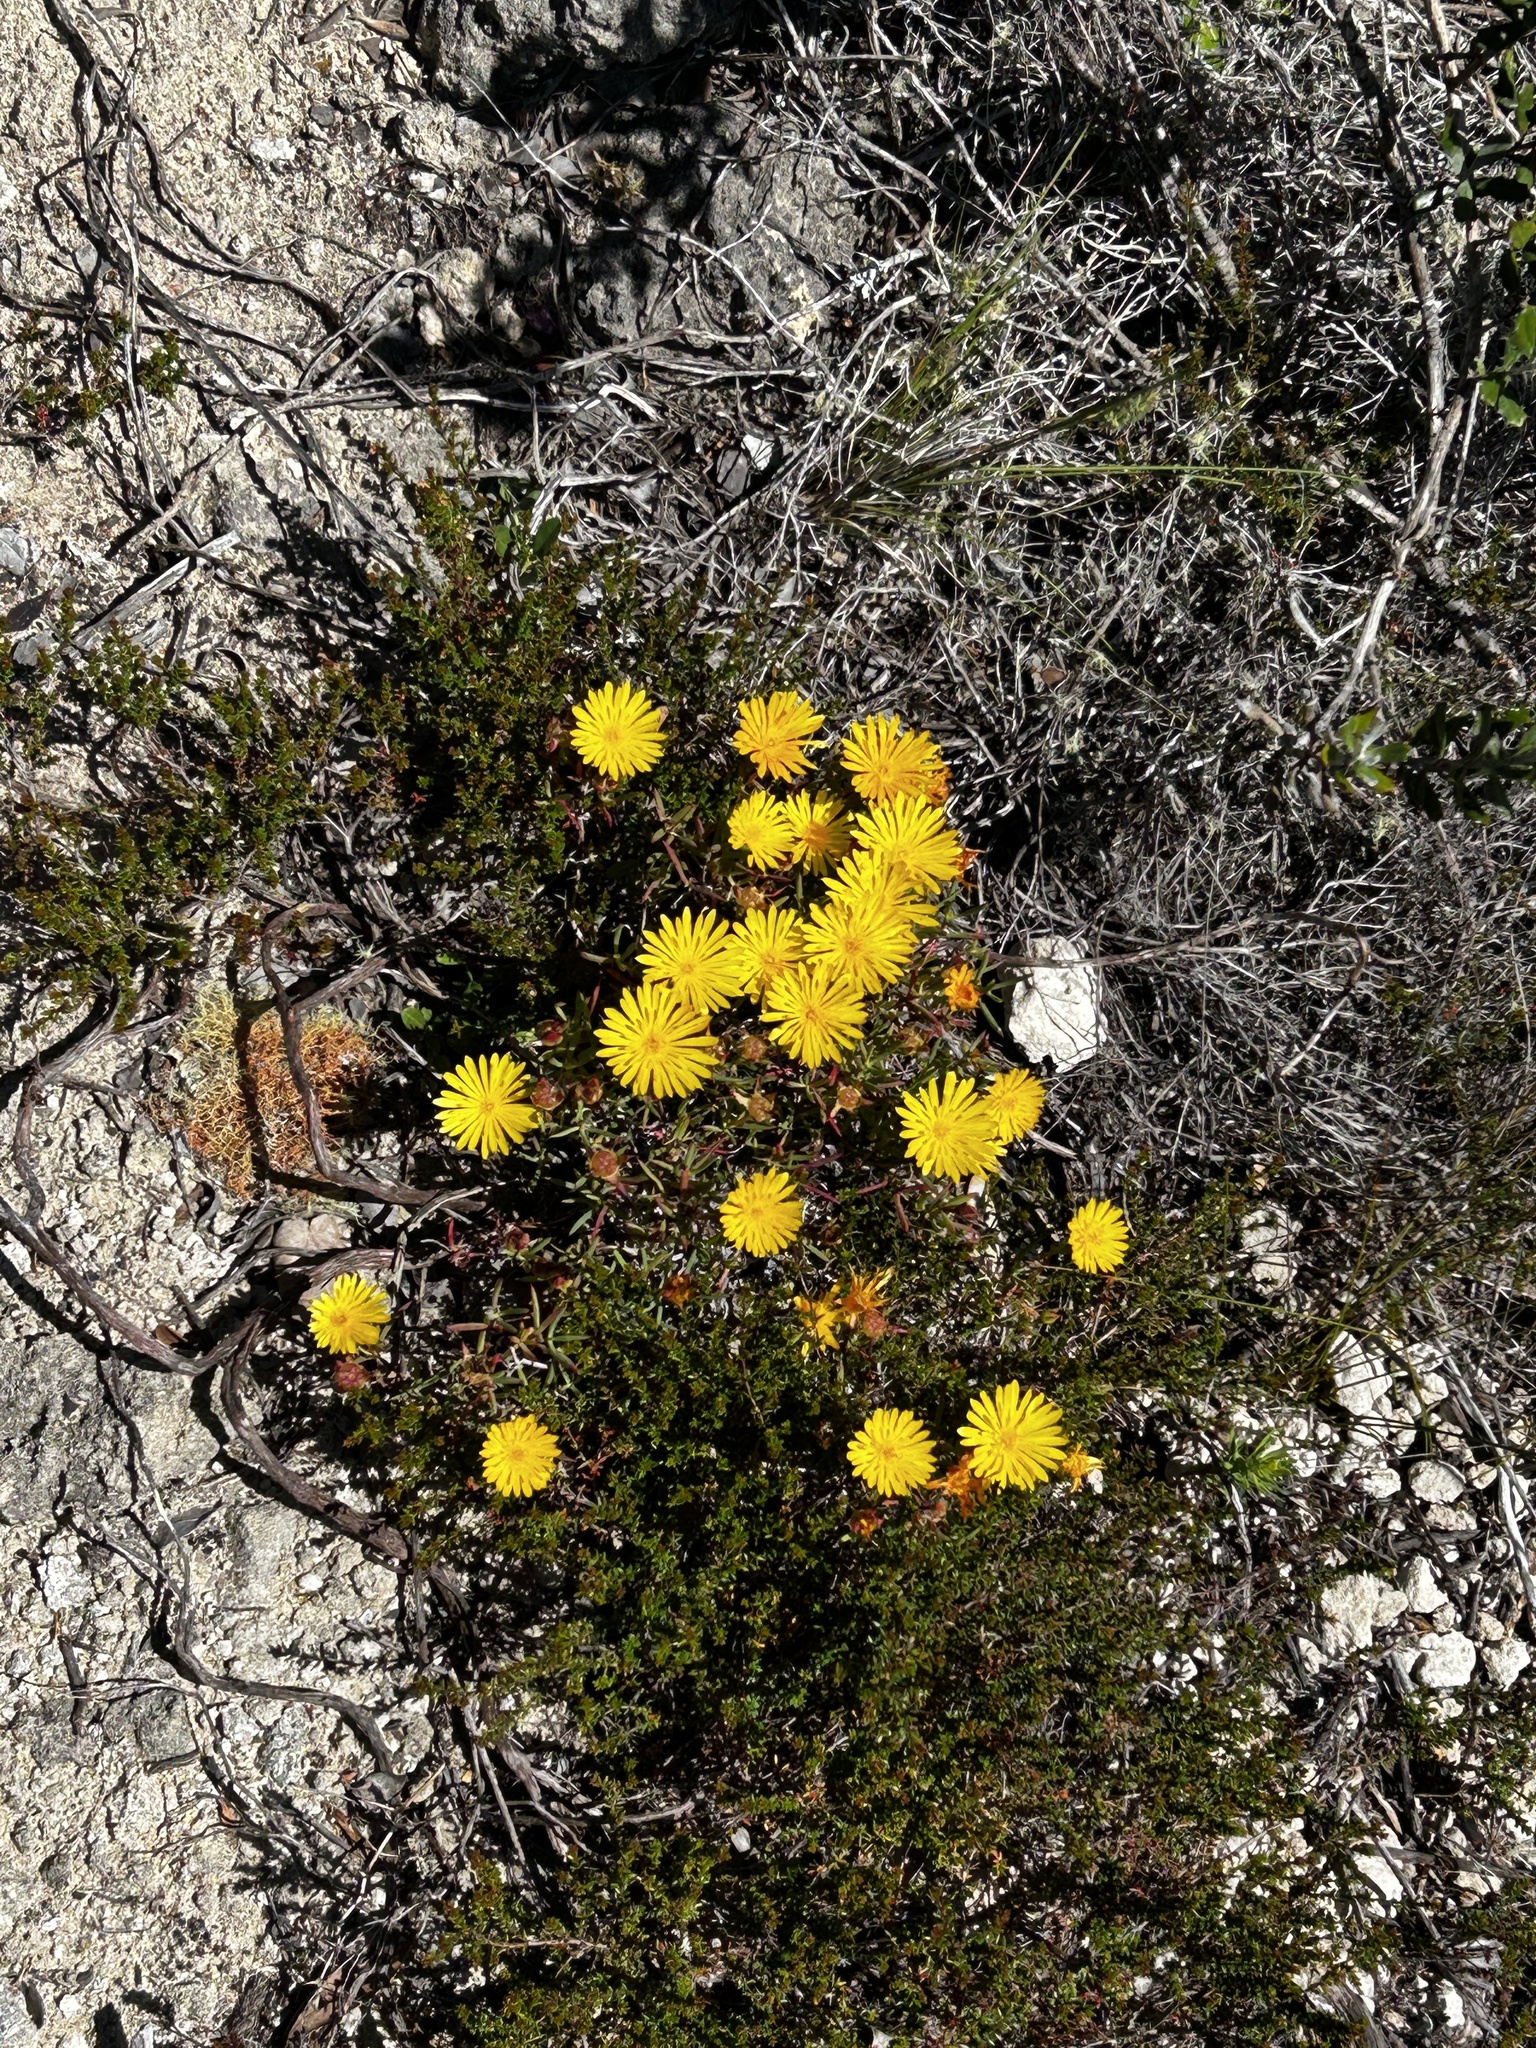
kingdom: Plantae
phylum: Tracheophyta
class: Magnoliopsida
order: Caryophyllales
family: Aizoaceae
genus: Lampranthus
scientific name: Lampranthus bicolor
